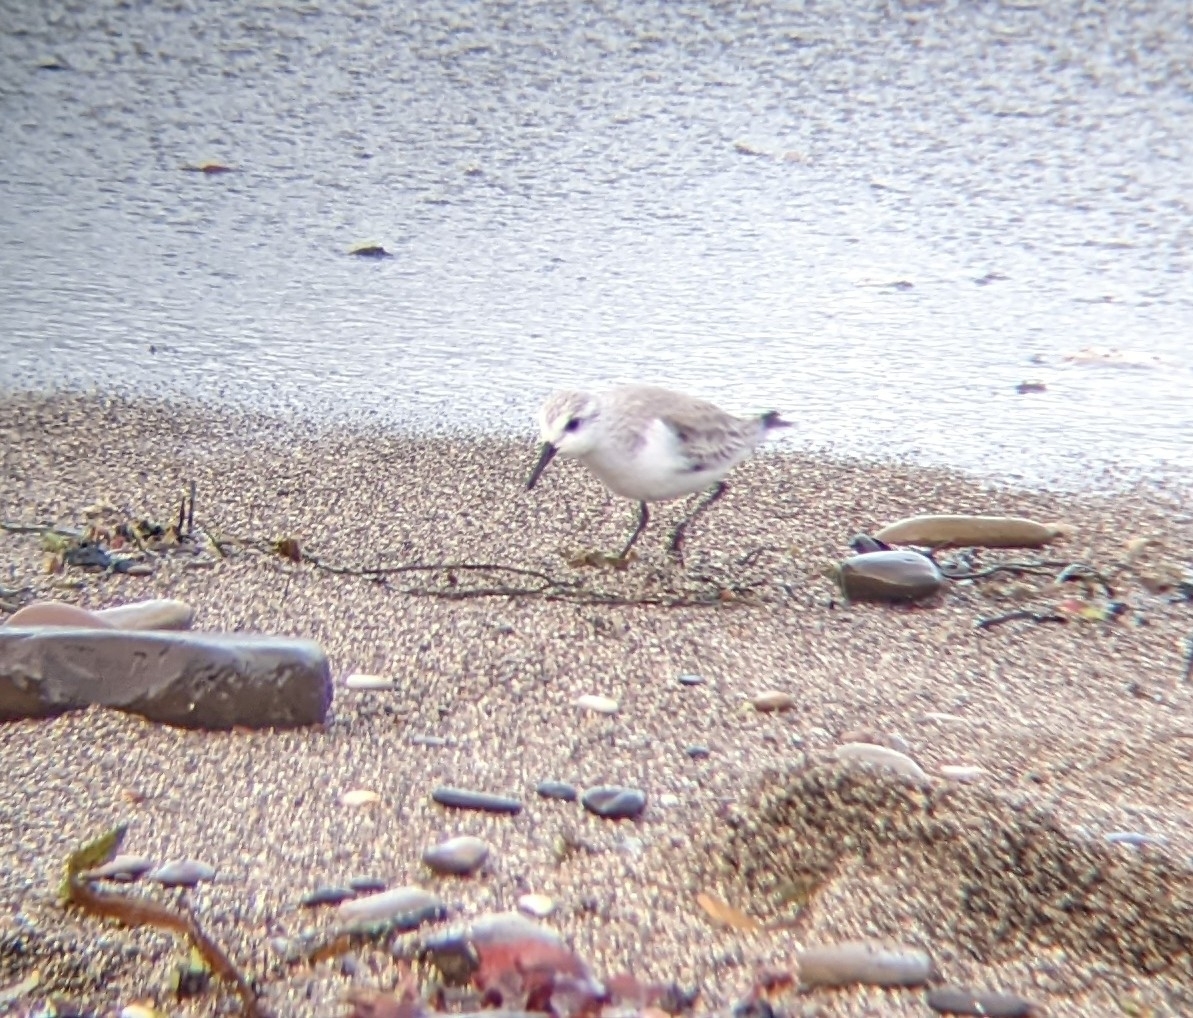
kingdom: Animalia
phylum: Chordata
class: Aves
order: Charadriiformes
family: Scolopacidae
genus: Calidris
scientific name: Calidris alba
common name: Sanderling
